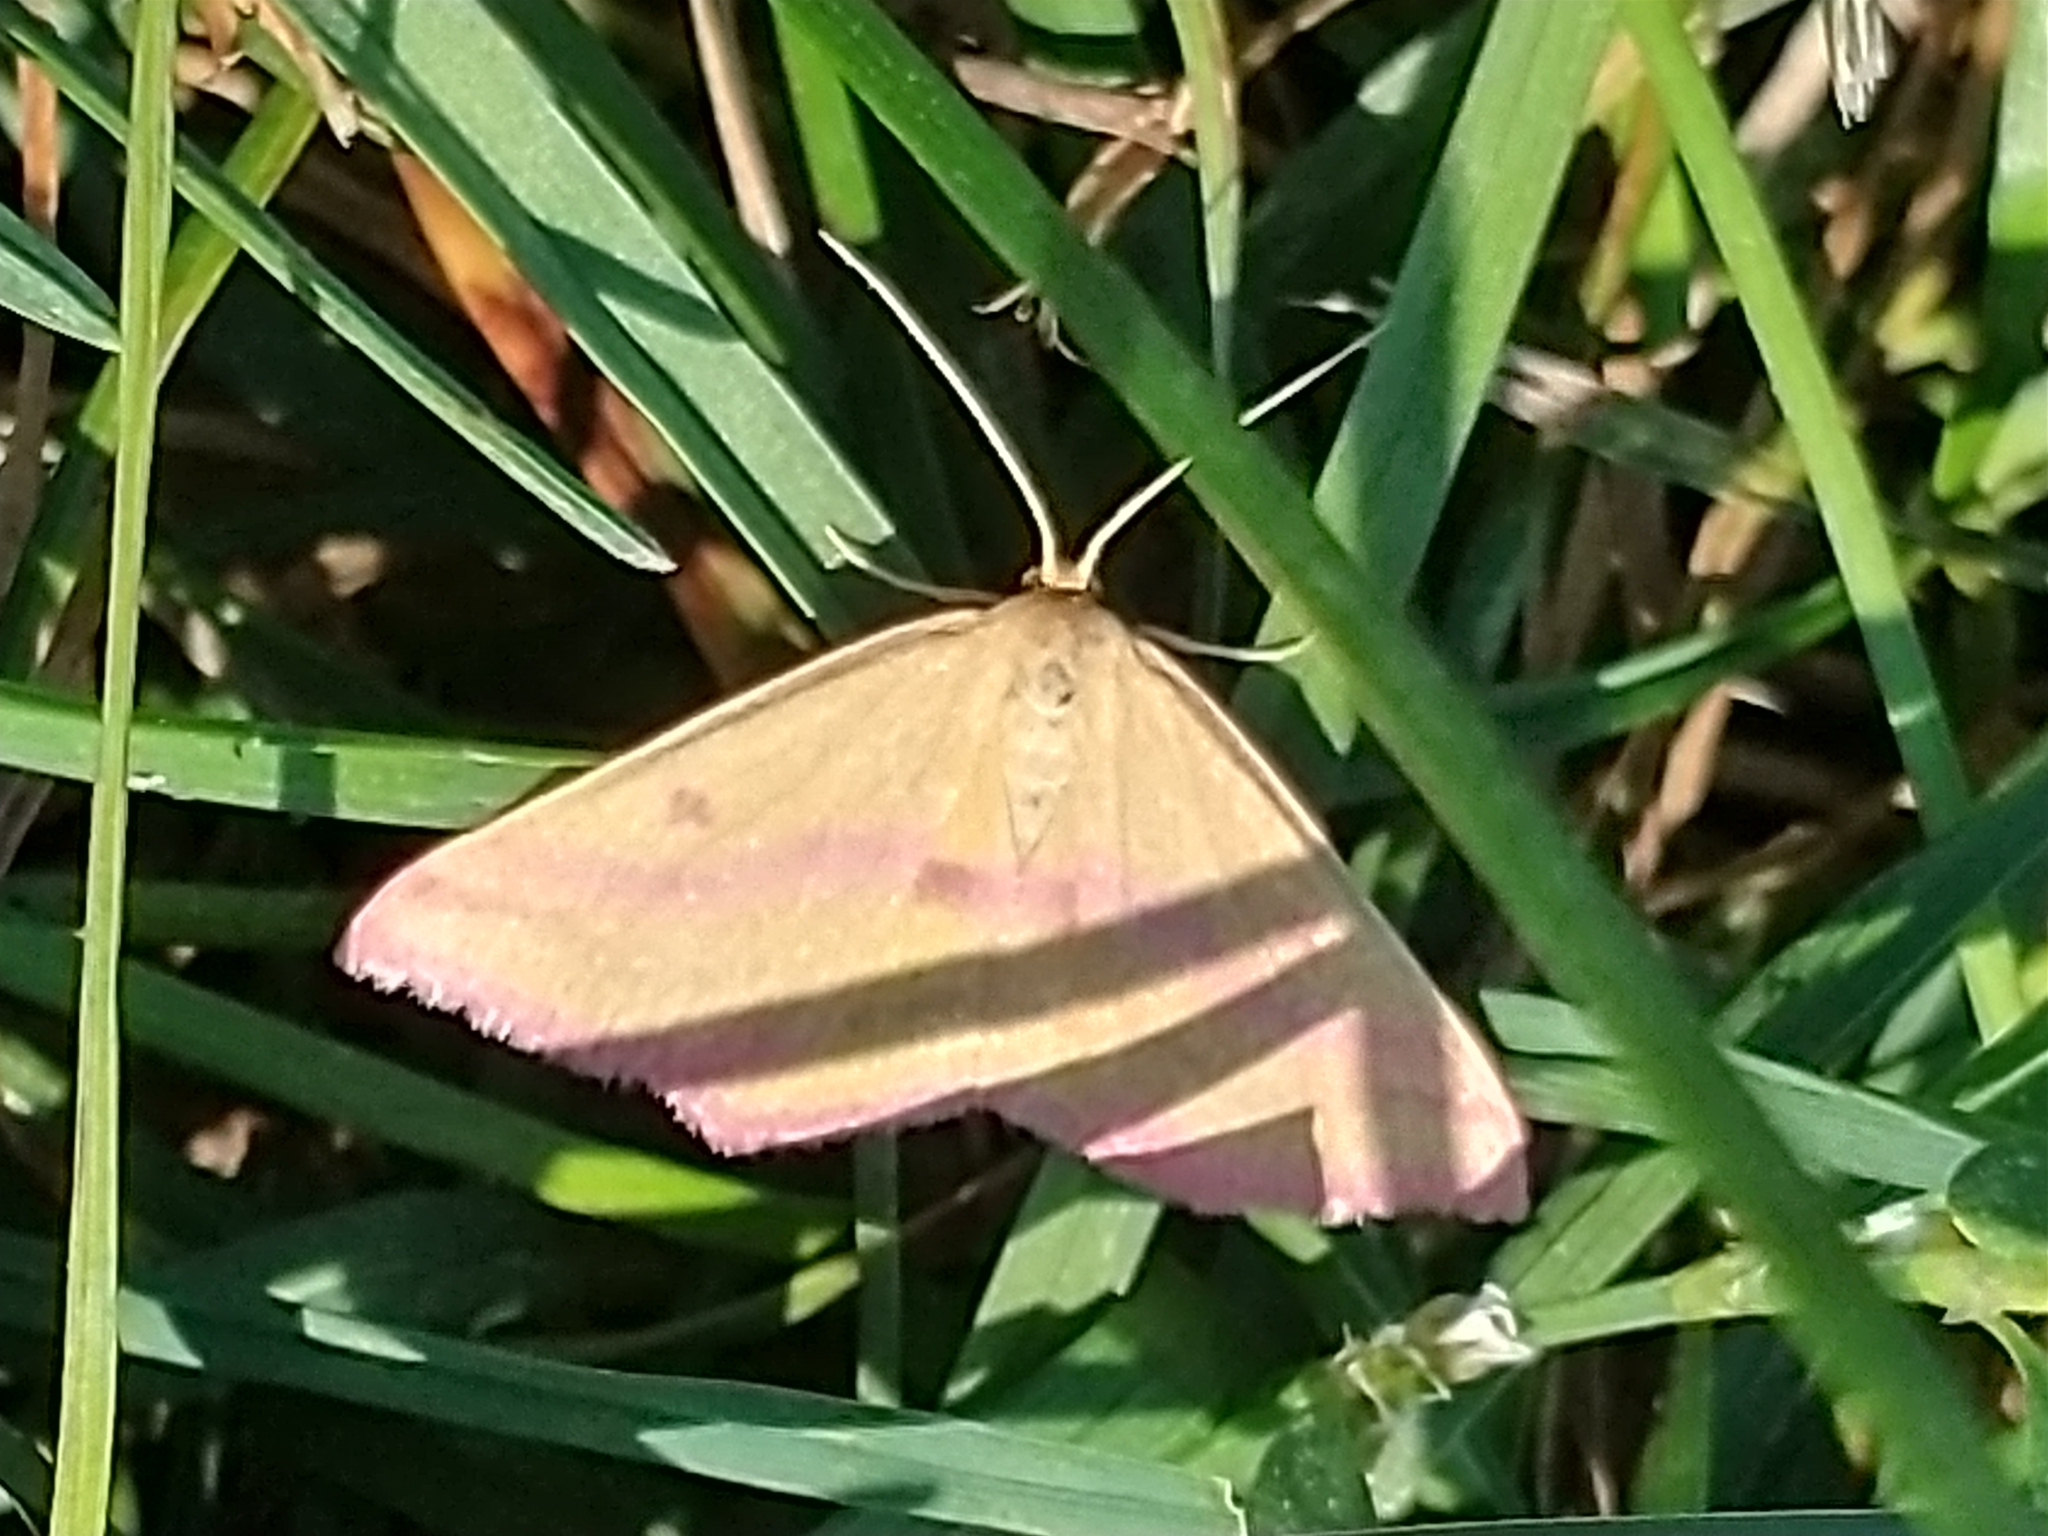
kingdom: Animalia
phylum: Arthropoda
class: Insecta
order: Lepidoptera
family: Geometridae
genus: Haematopis
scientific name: Haematopis grataria
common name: Chickweed geometer
